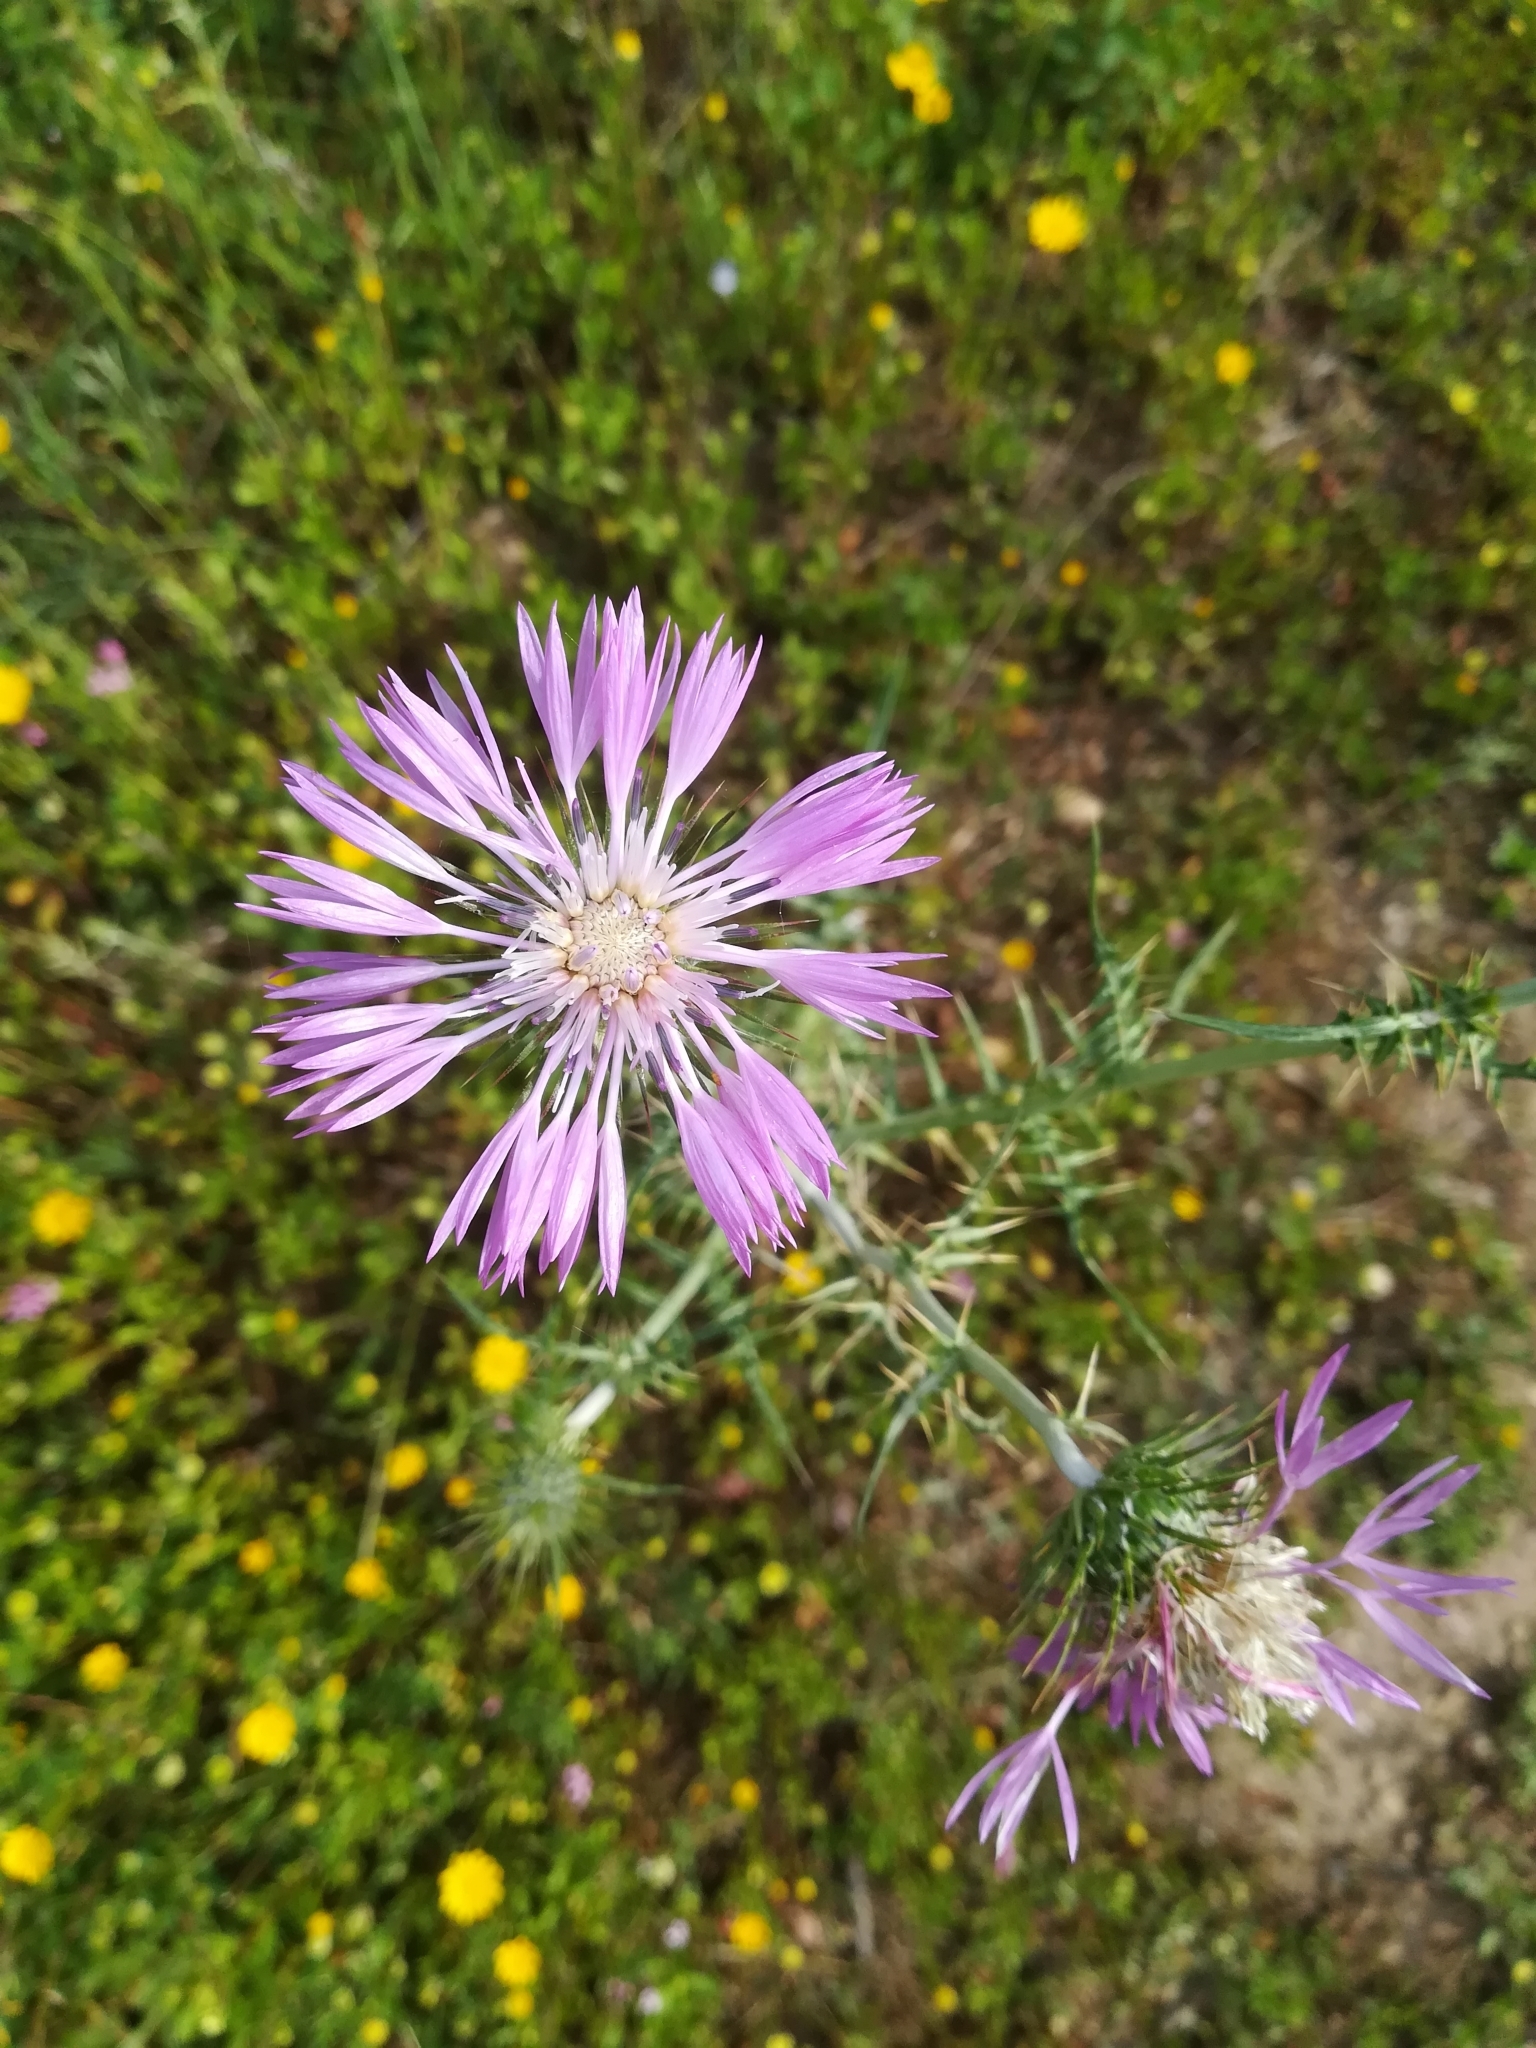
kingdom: Plantae
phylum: Tracheophyta
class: Magnoliopsida
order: Asterales
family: Asteraceae
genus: Galactites
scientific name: Galactites tomentosa
